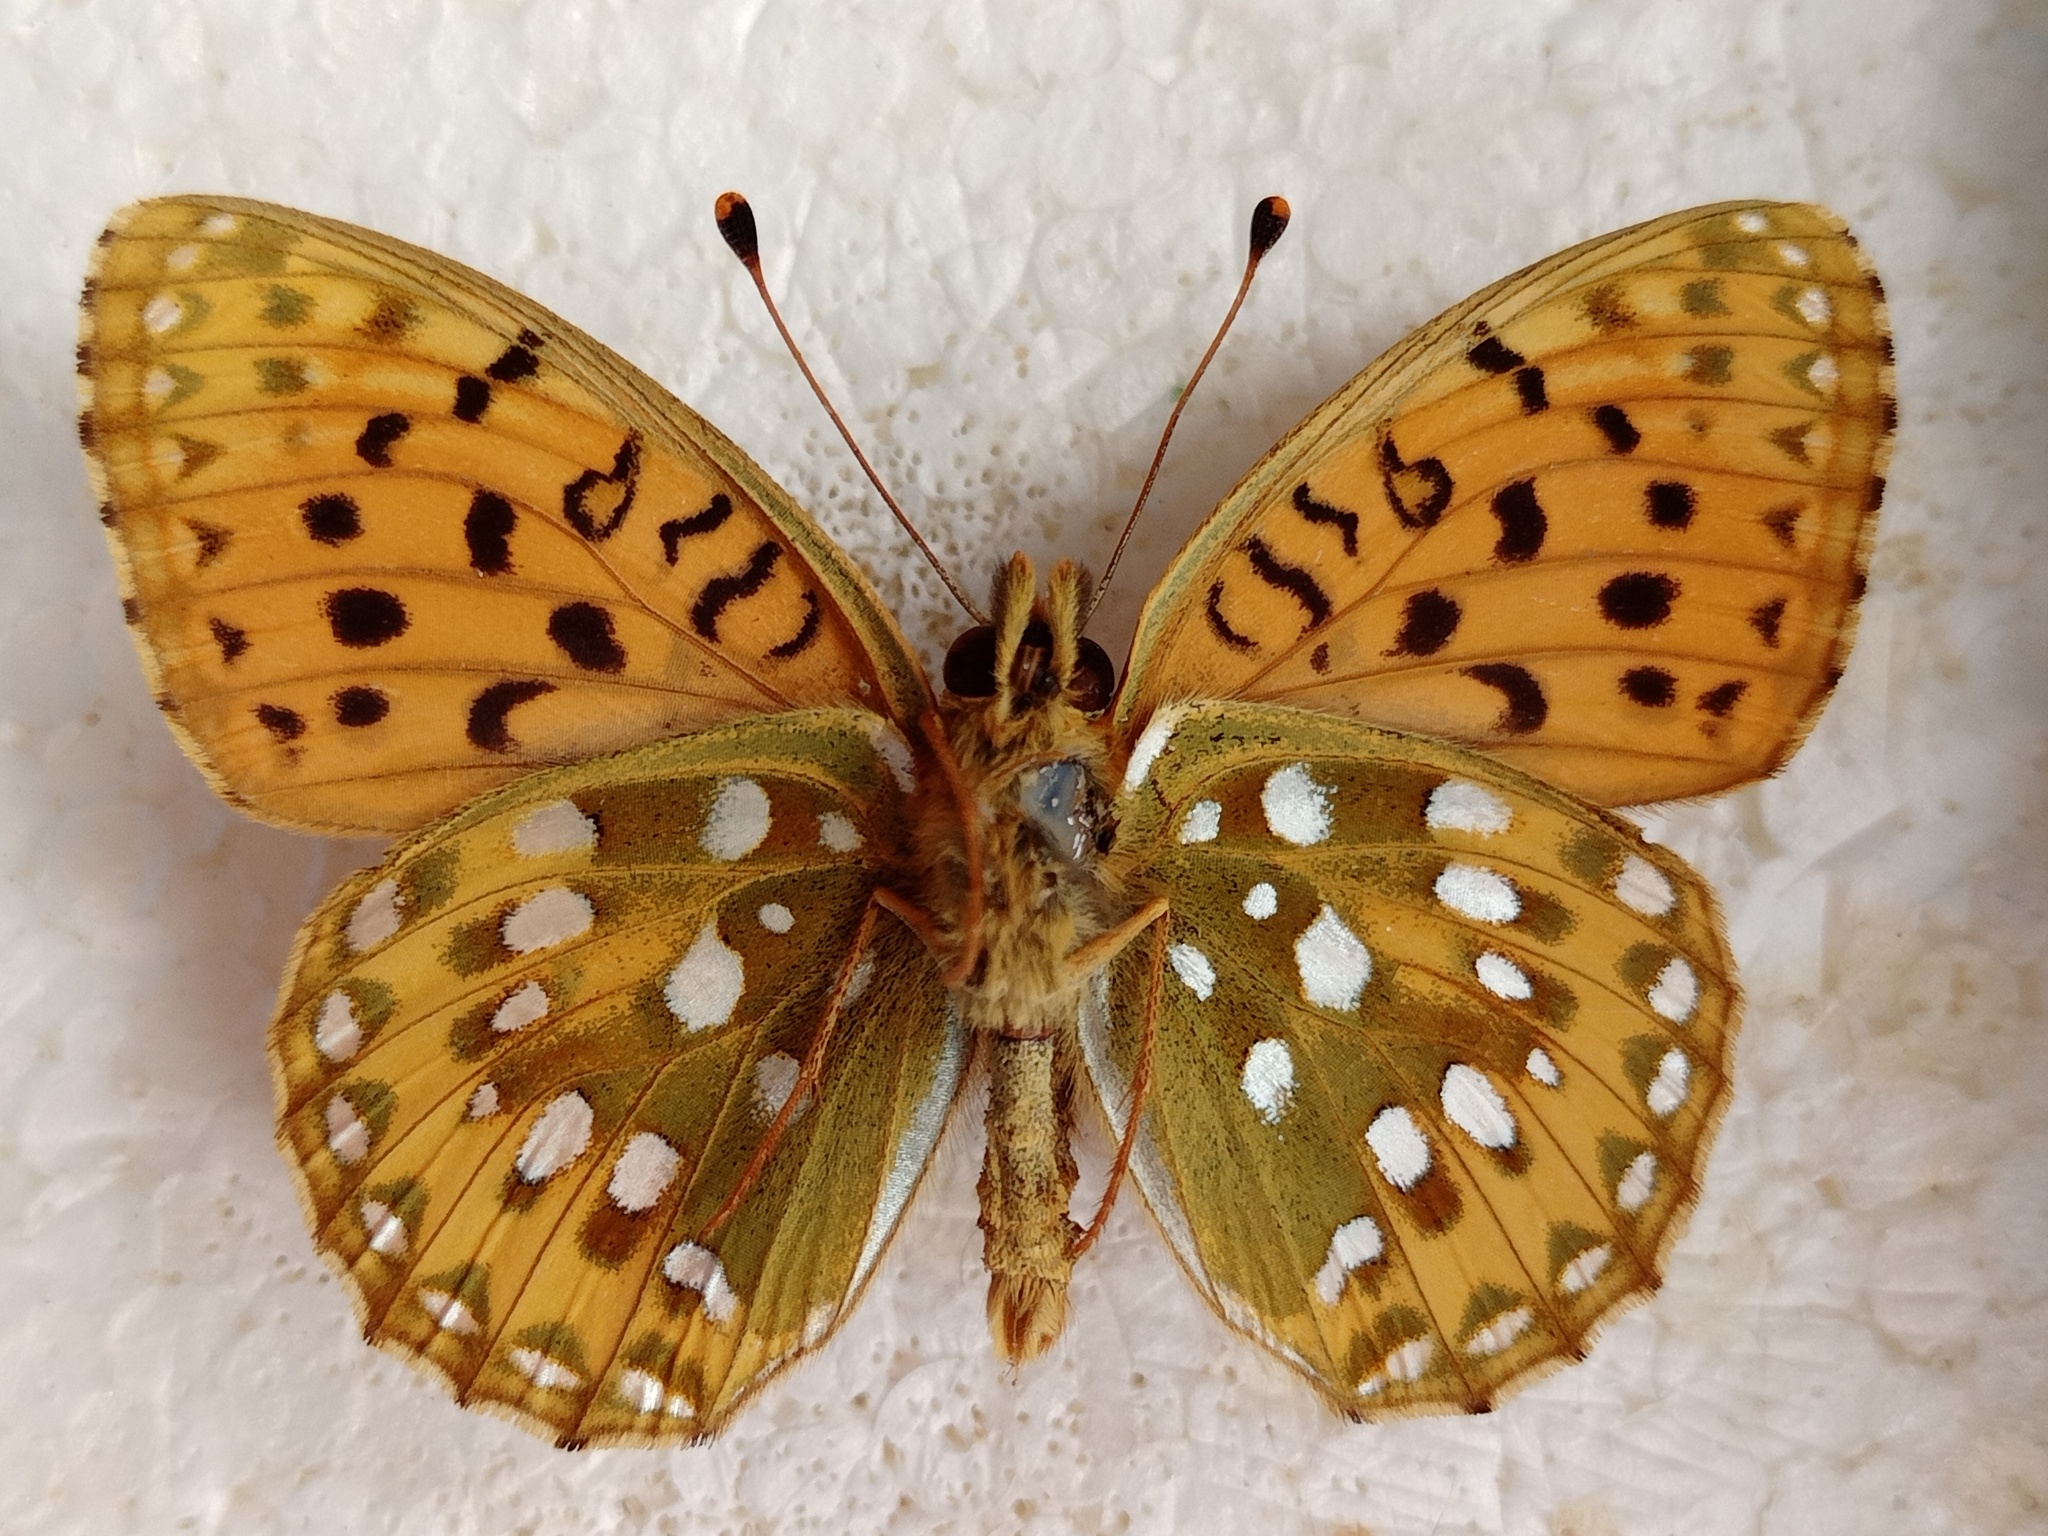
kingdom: Animalia
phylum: Arthropoda
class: Insecta
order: Lepidoptera
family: Nymphalidae
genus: Speyeria
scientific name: Speyeria aglaja
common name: Dark green fritillary
